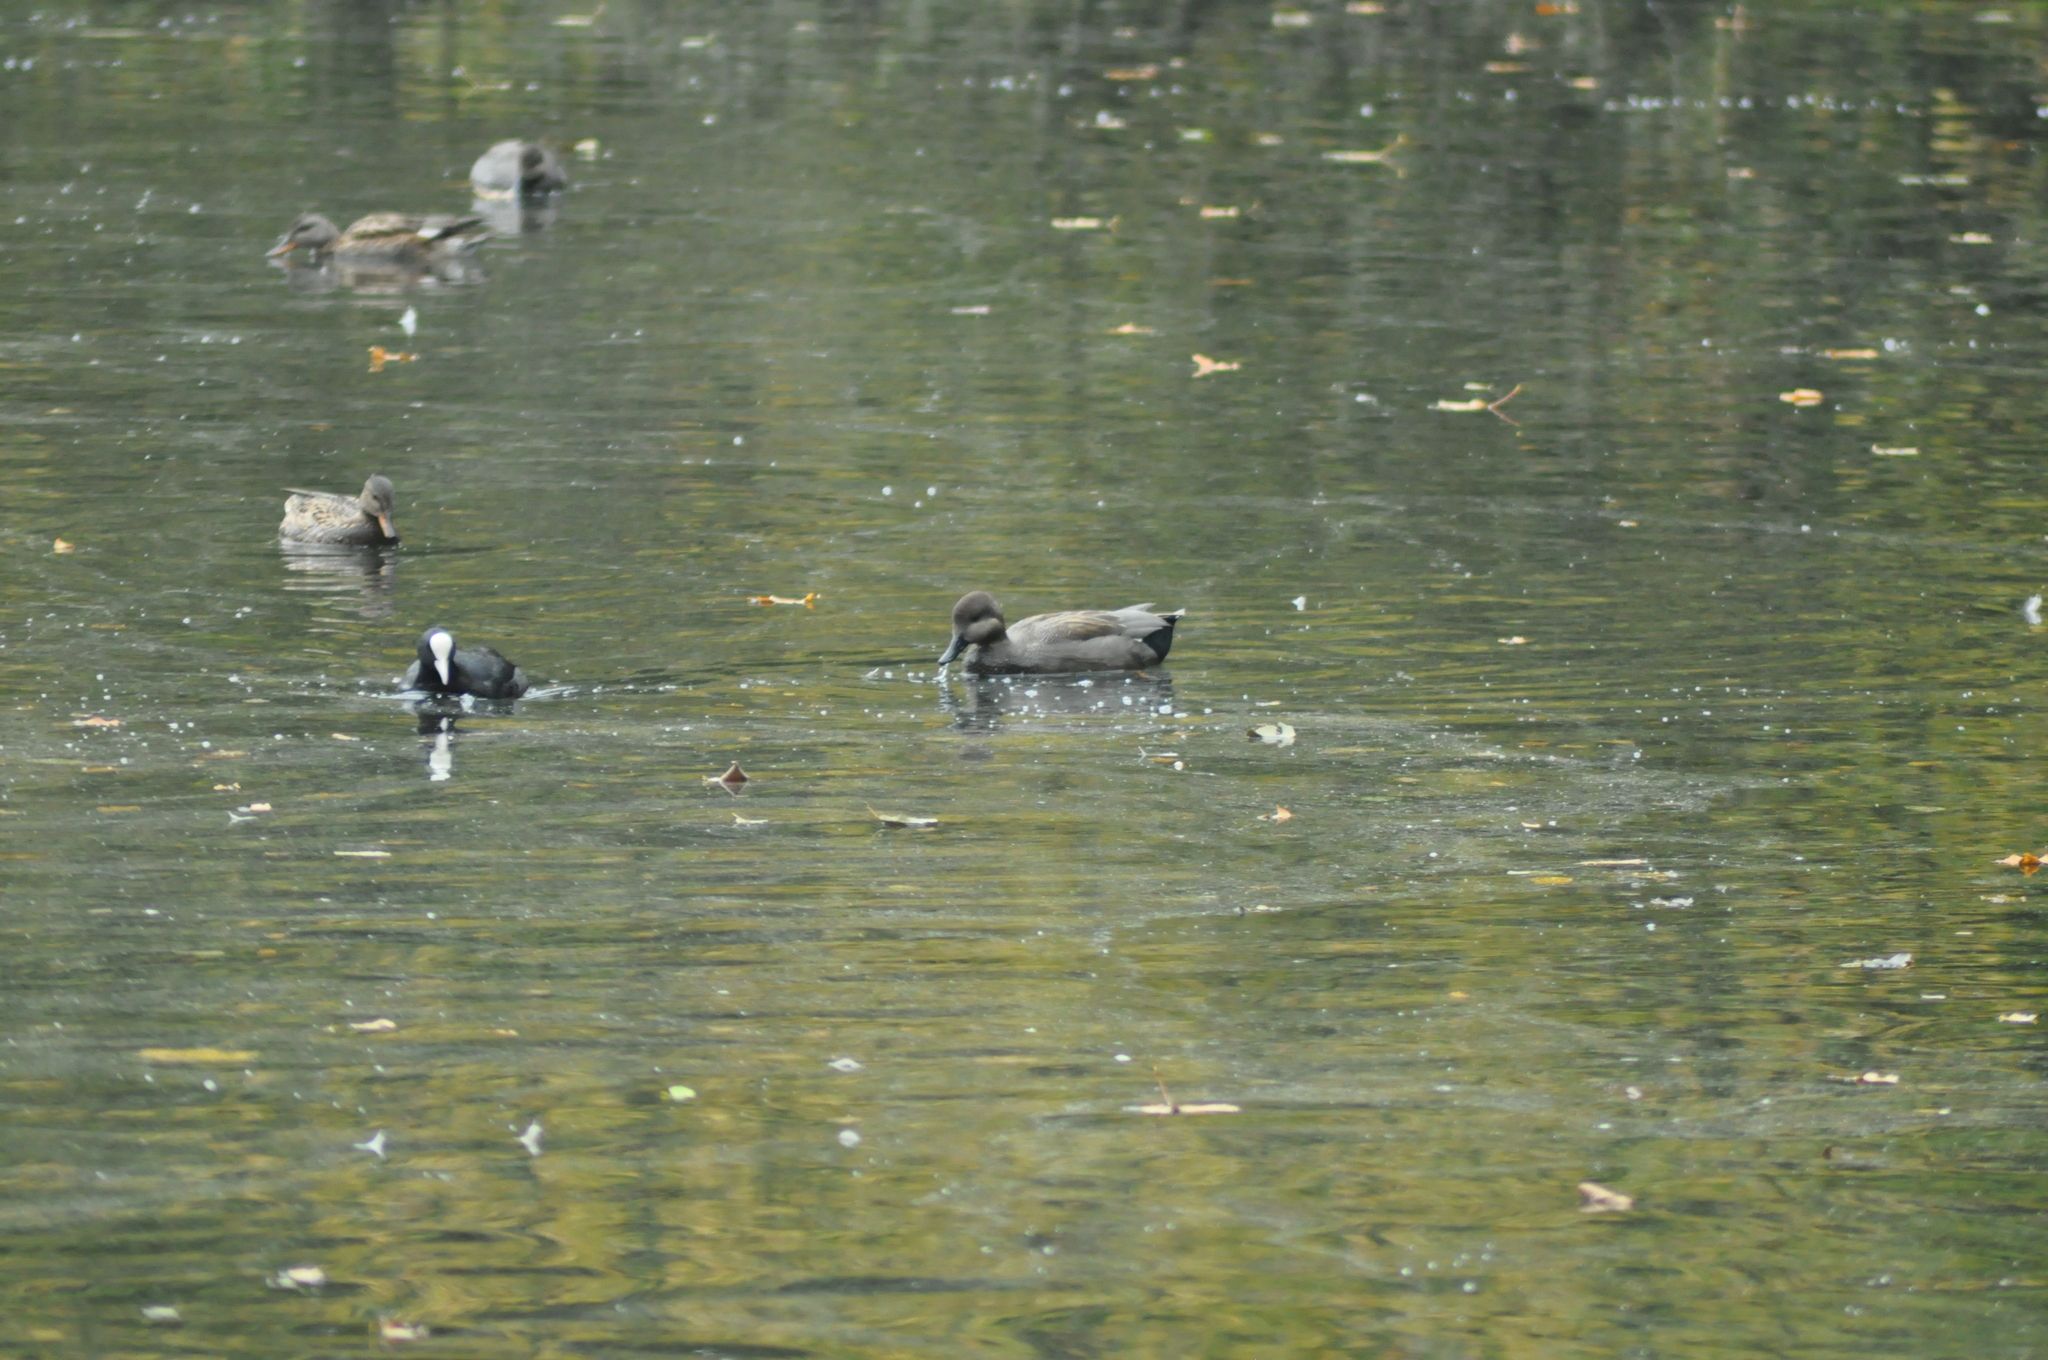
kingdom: Animalia
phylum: Chordata
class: Aves
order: Anseriformes
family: Anatidae
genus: Mareca
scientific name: Mareca strepera
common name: Gadwall
